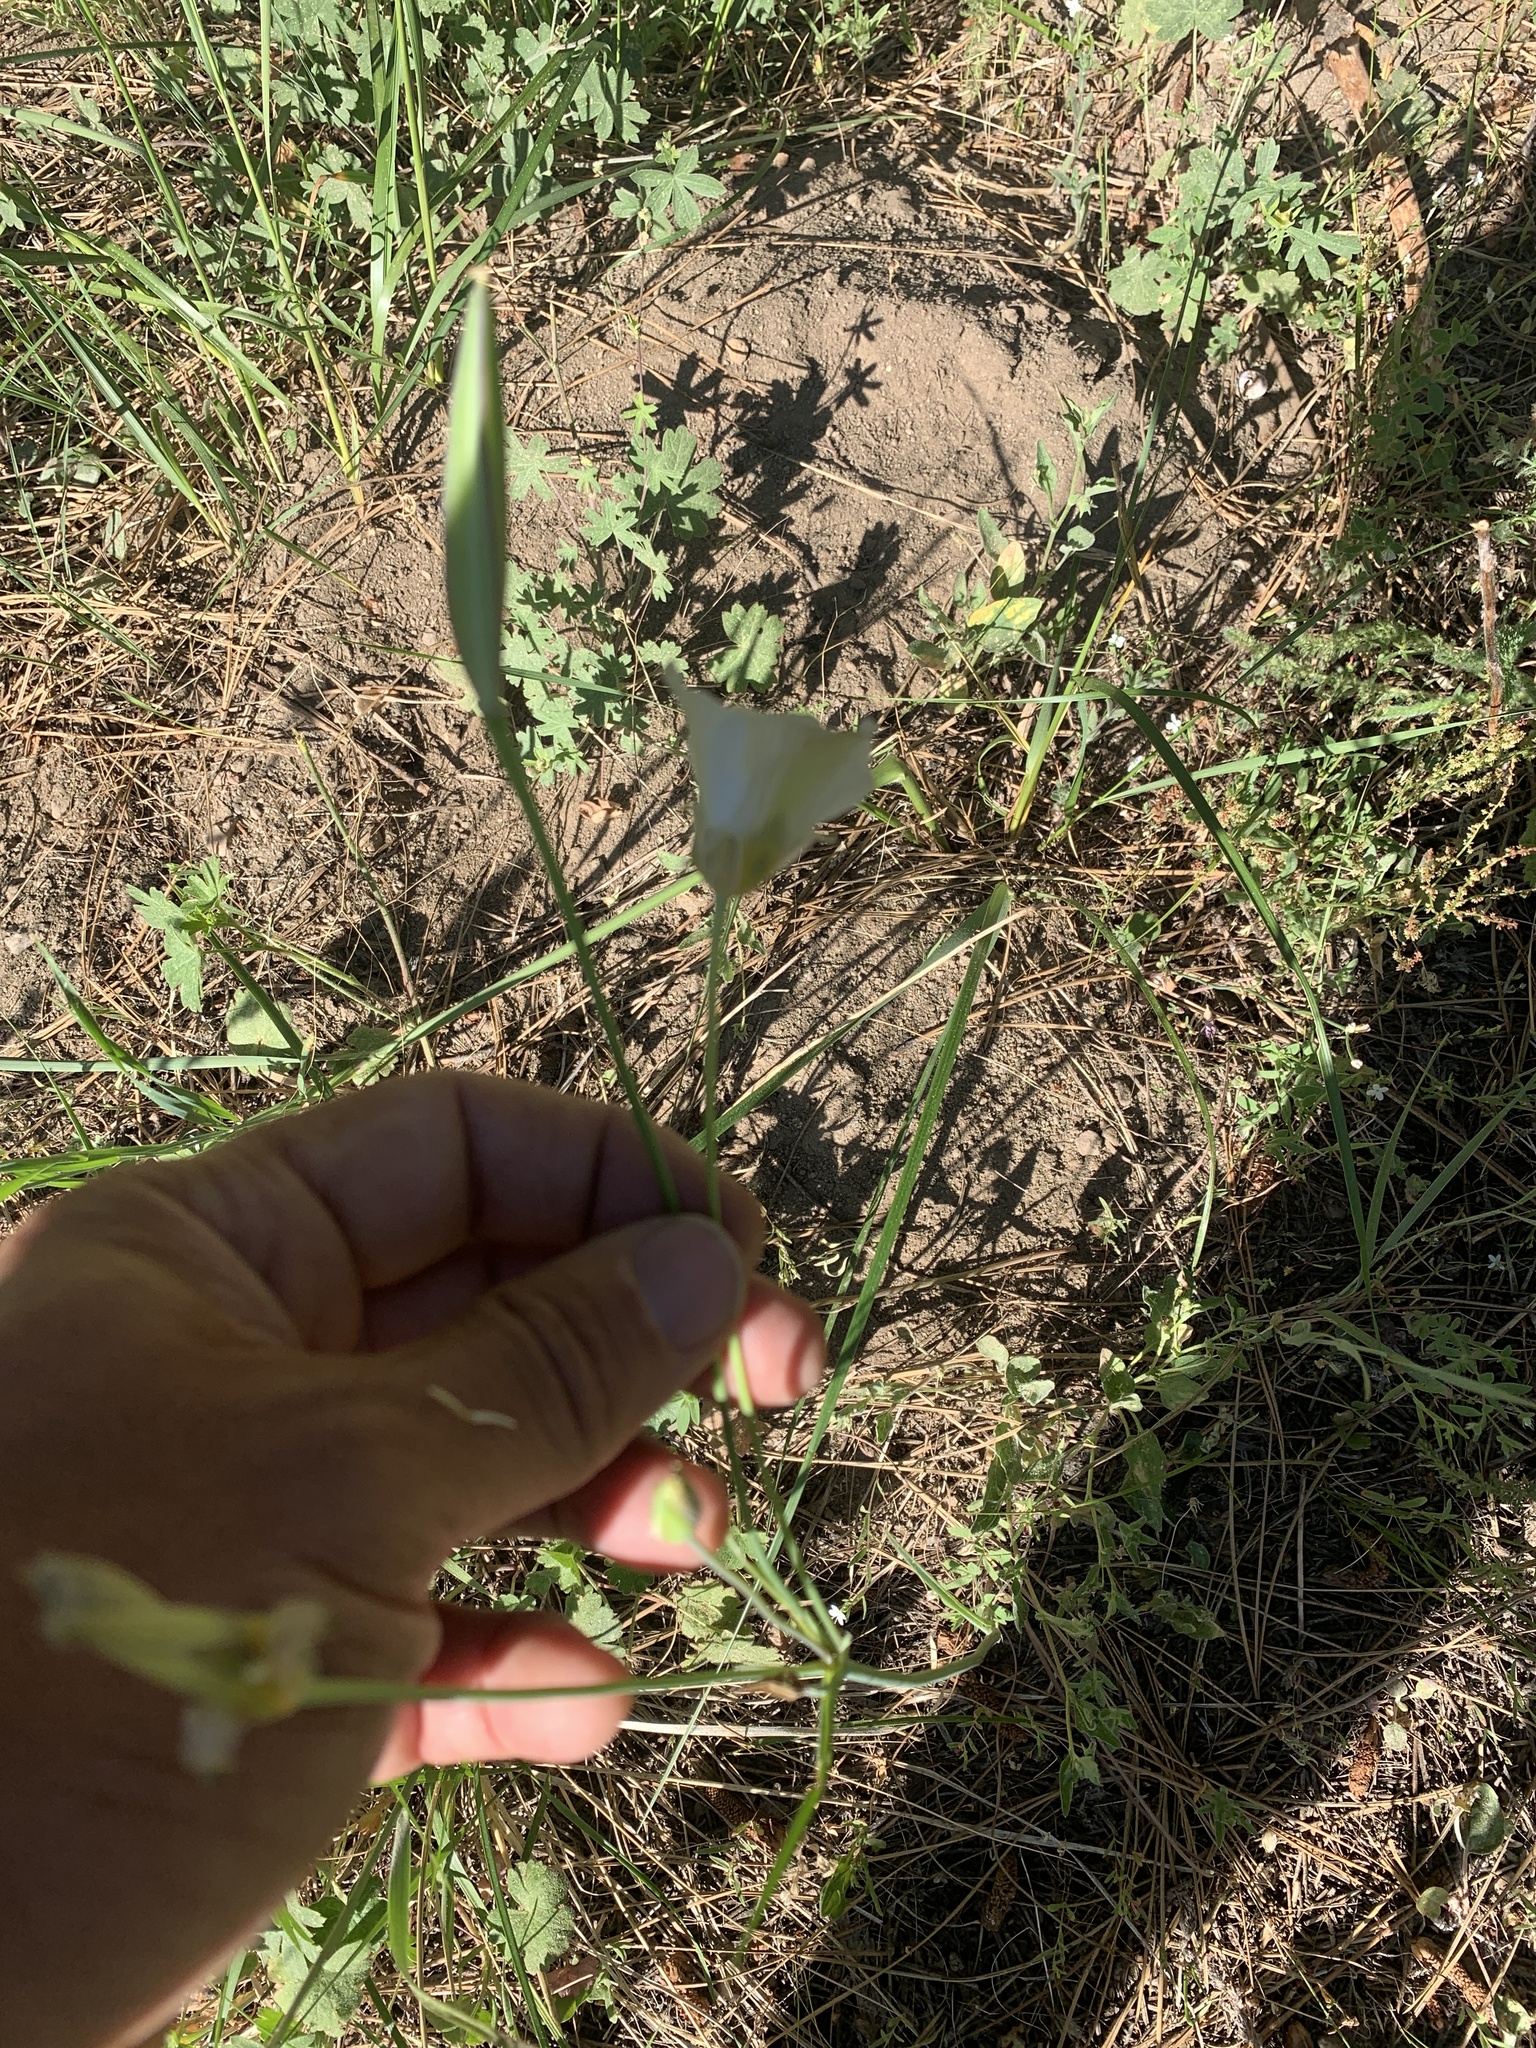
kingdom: Plantae
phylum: Tracheophyta
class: Liliopsida
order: Liliales
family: Liliaceae
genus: Calochortus
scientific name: Calochortus leichtlinii
